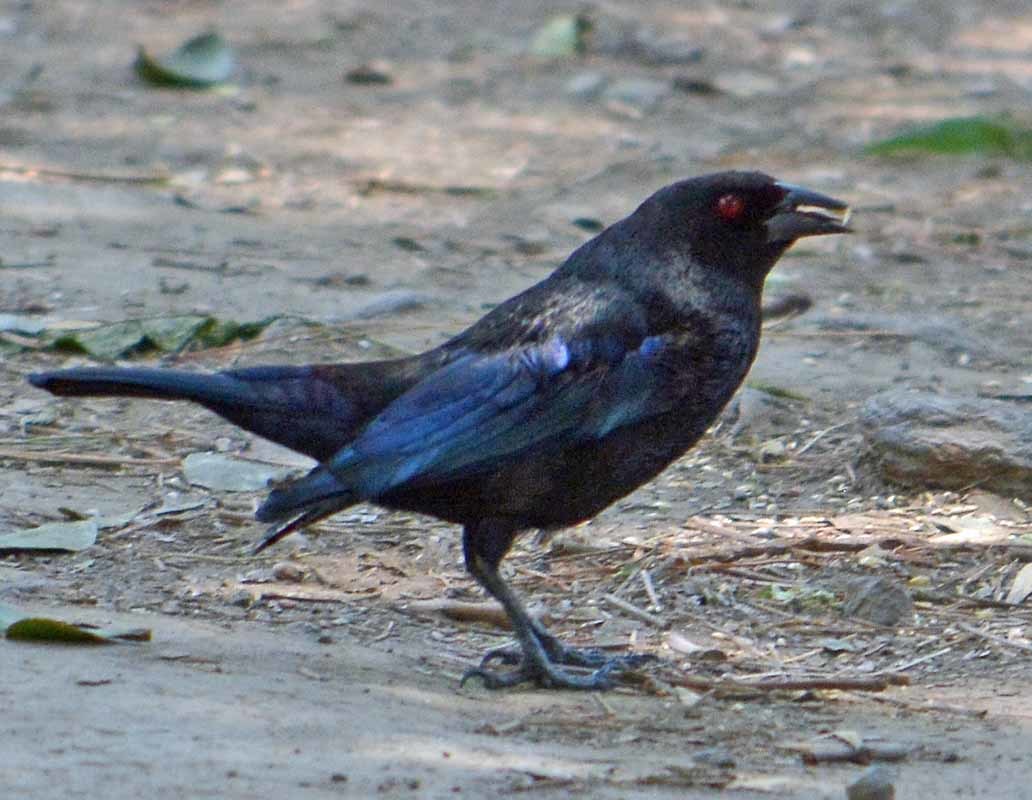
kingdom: Animalia
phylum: Chordata
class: Aves
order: Passeriformes
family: Icteridae
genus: Molothrus
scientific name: Molothrus aeneus
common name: Bronzed cowbird
